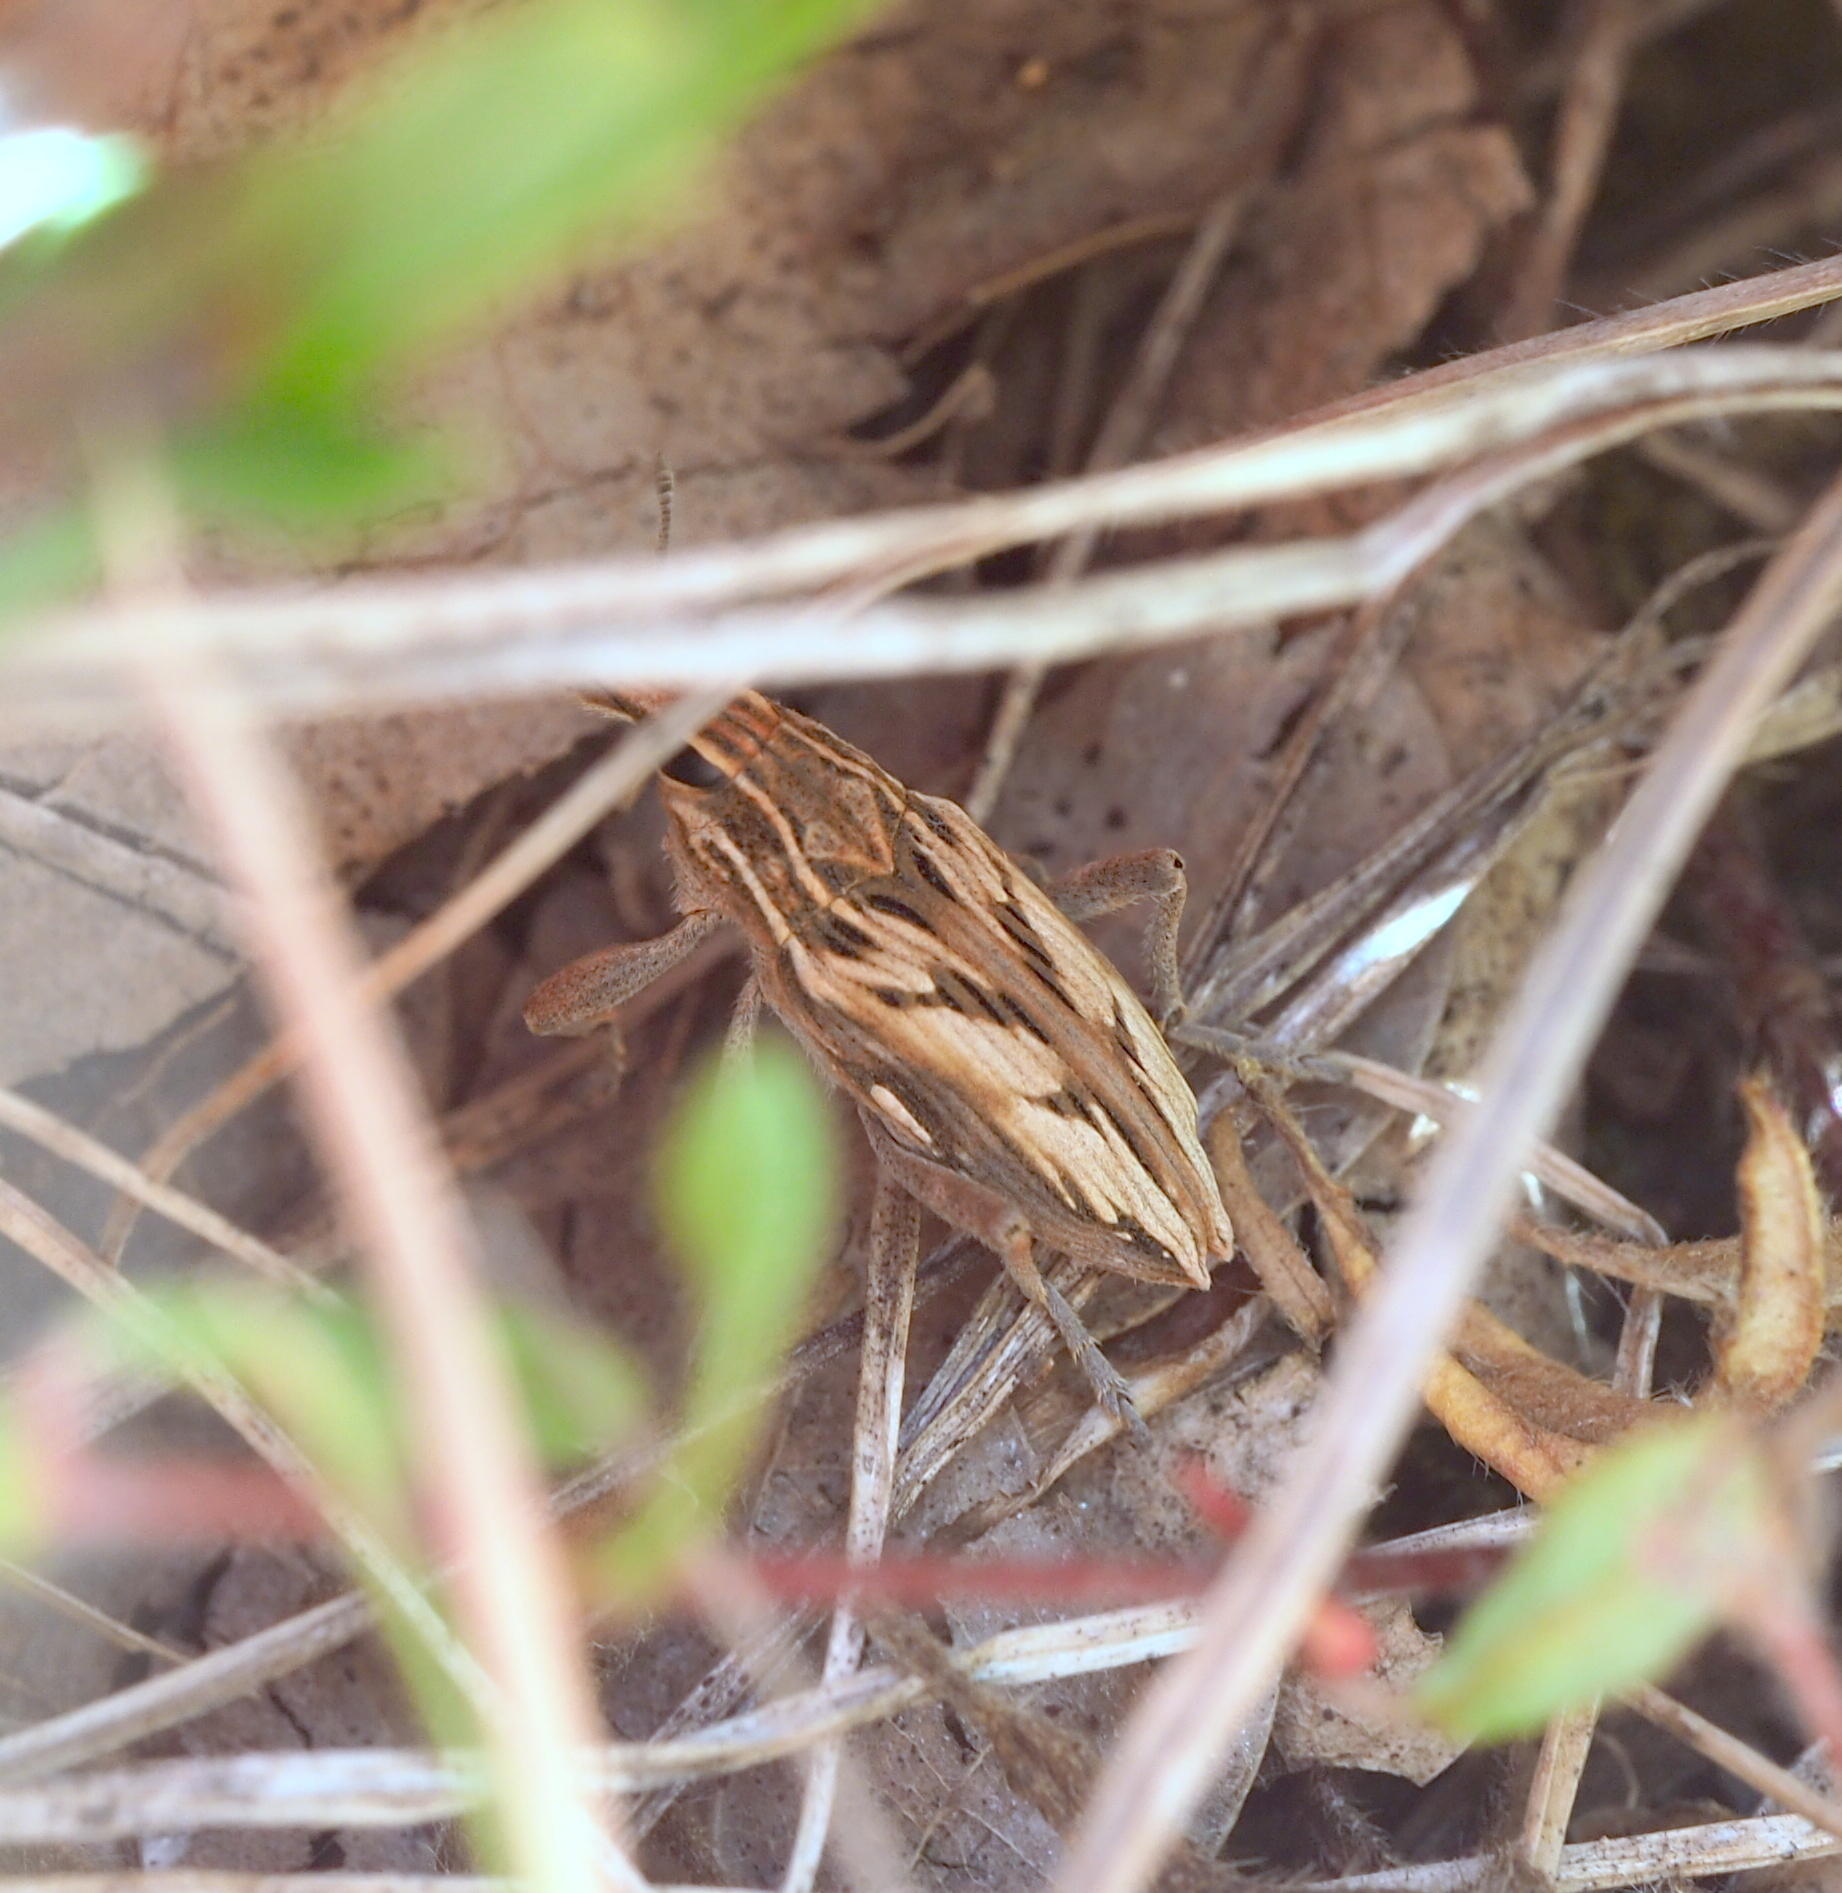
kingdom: Animalia
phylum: Arthropoda
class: Insecta
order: Coleoptera
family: Curculionidae
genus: Coniocleonus
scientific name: Coniocleonus nigrosuturatus
